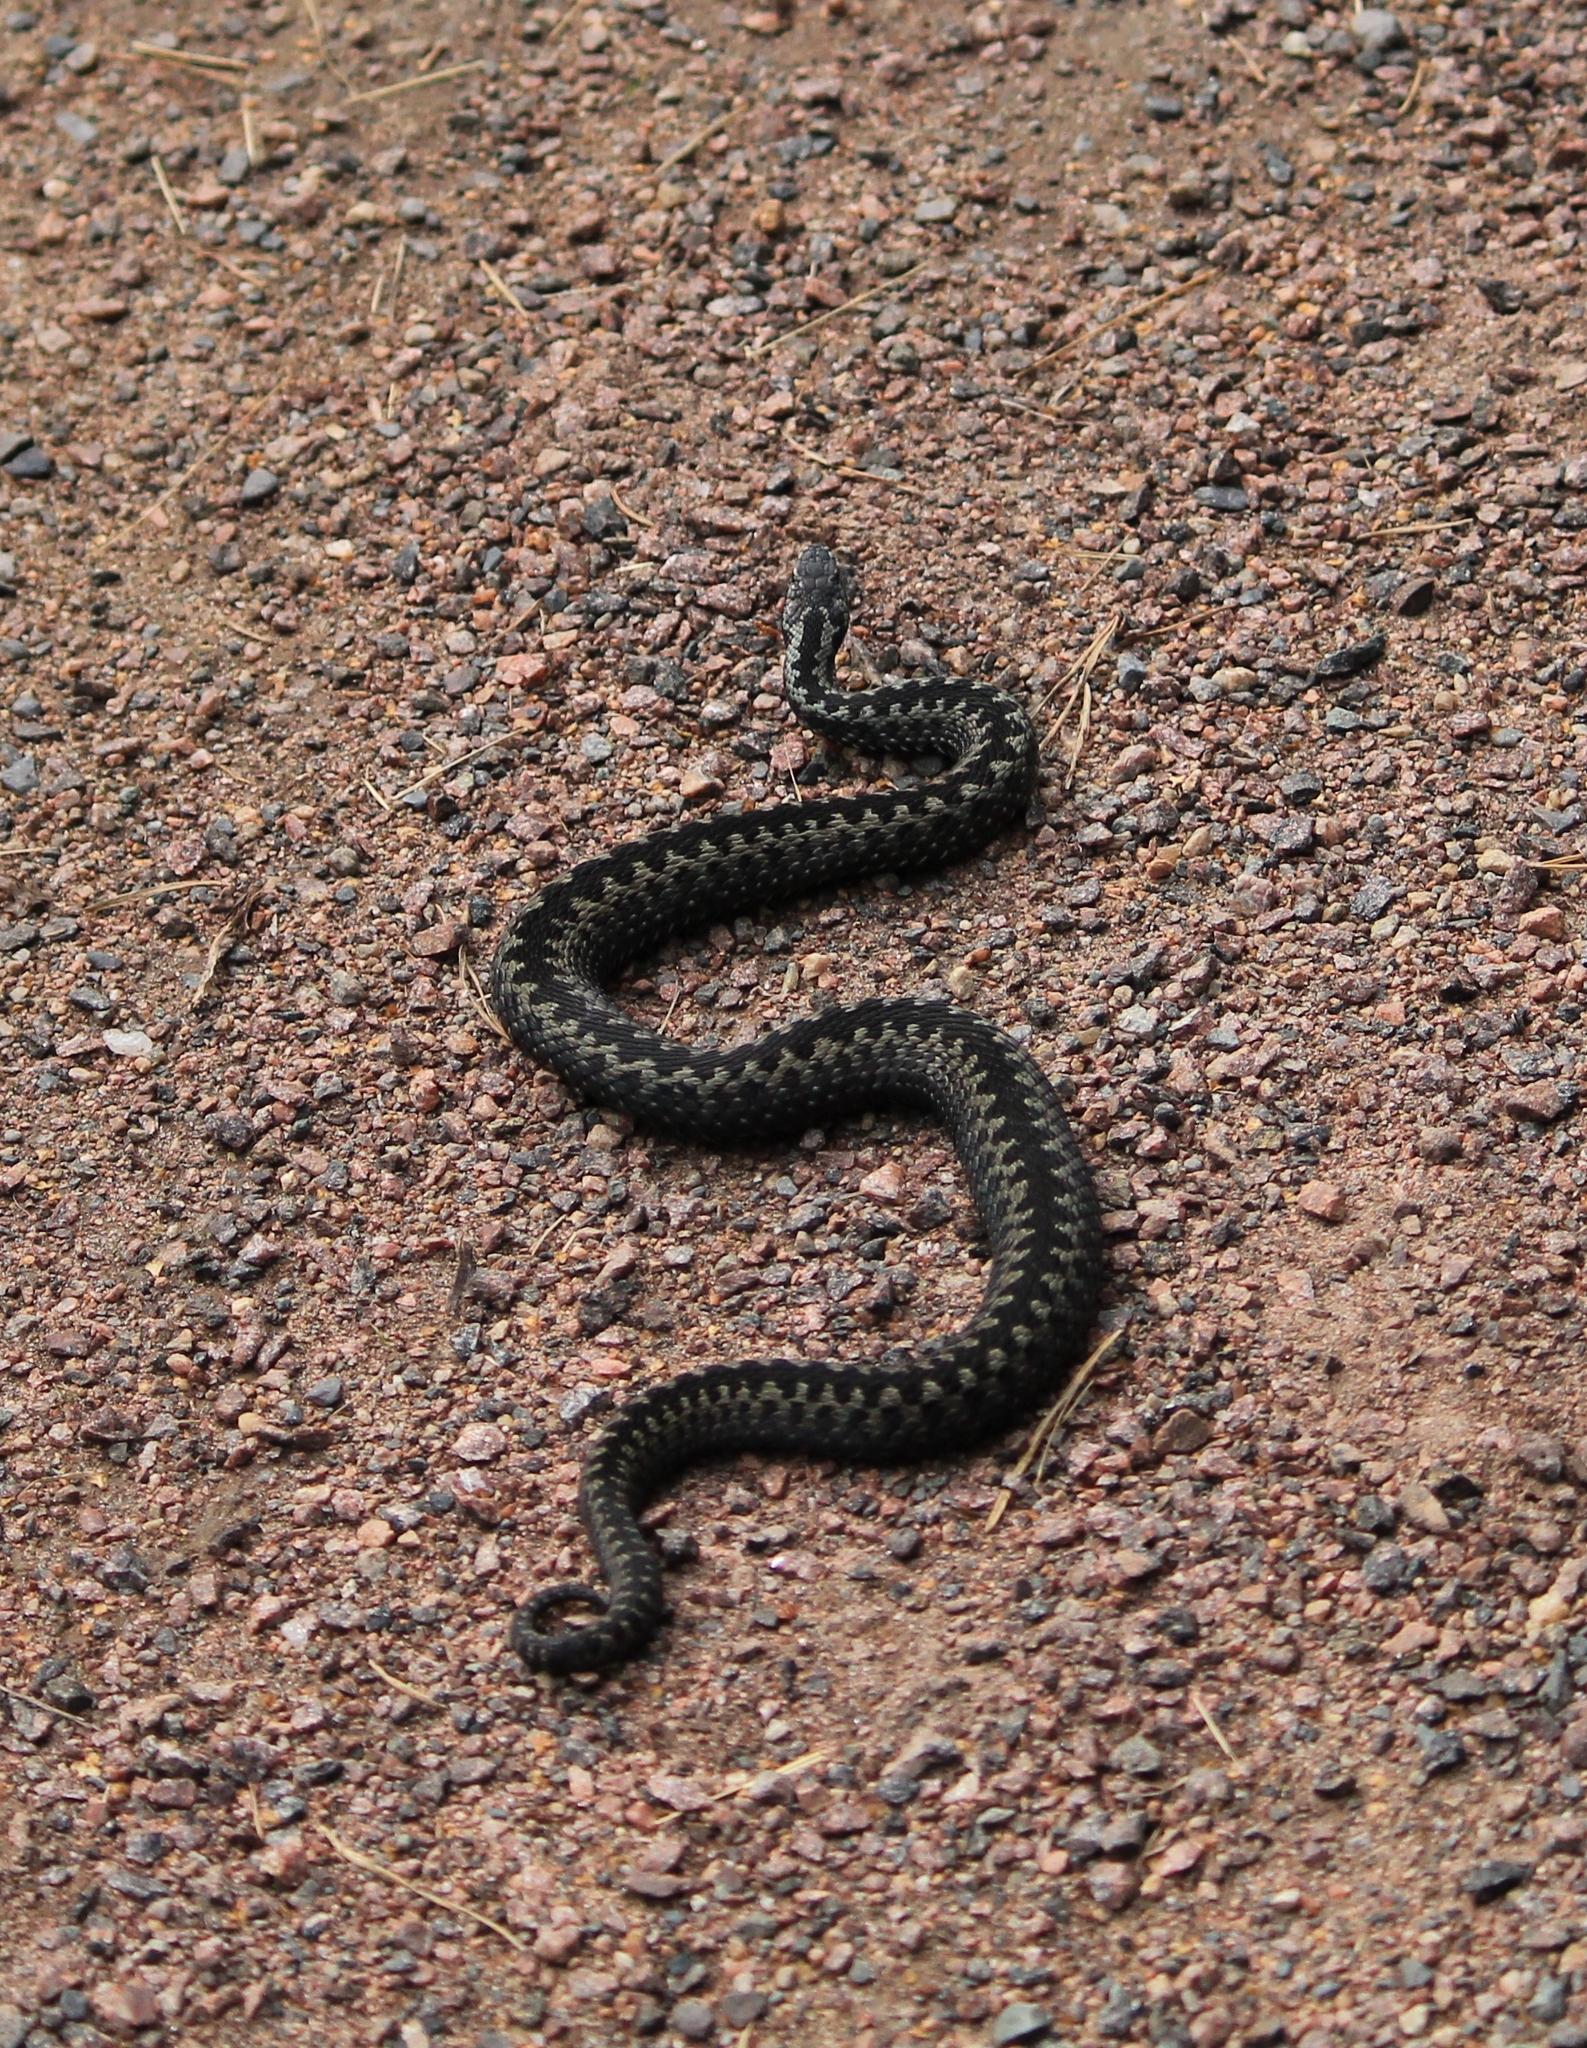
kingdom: Animalia
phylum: Chordata
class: Squamata
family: Viperidae
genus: Vipera
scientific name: Vipera berus
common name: Adder
